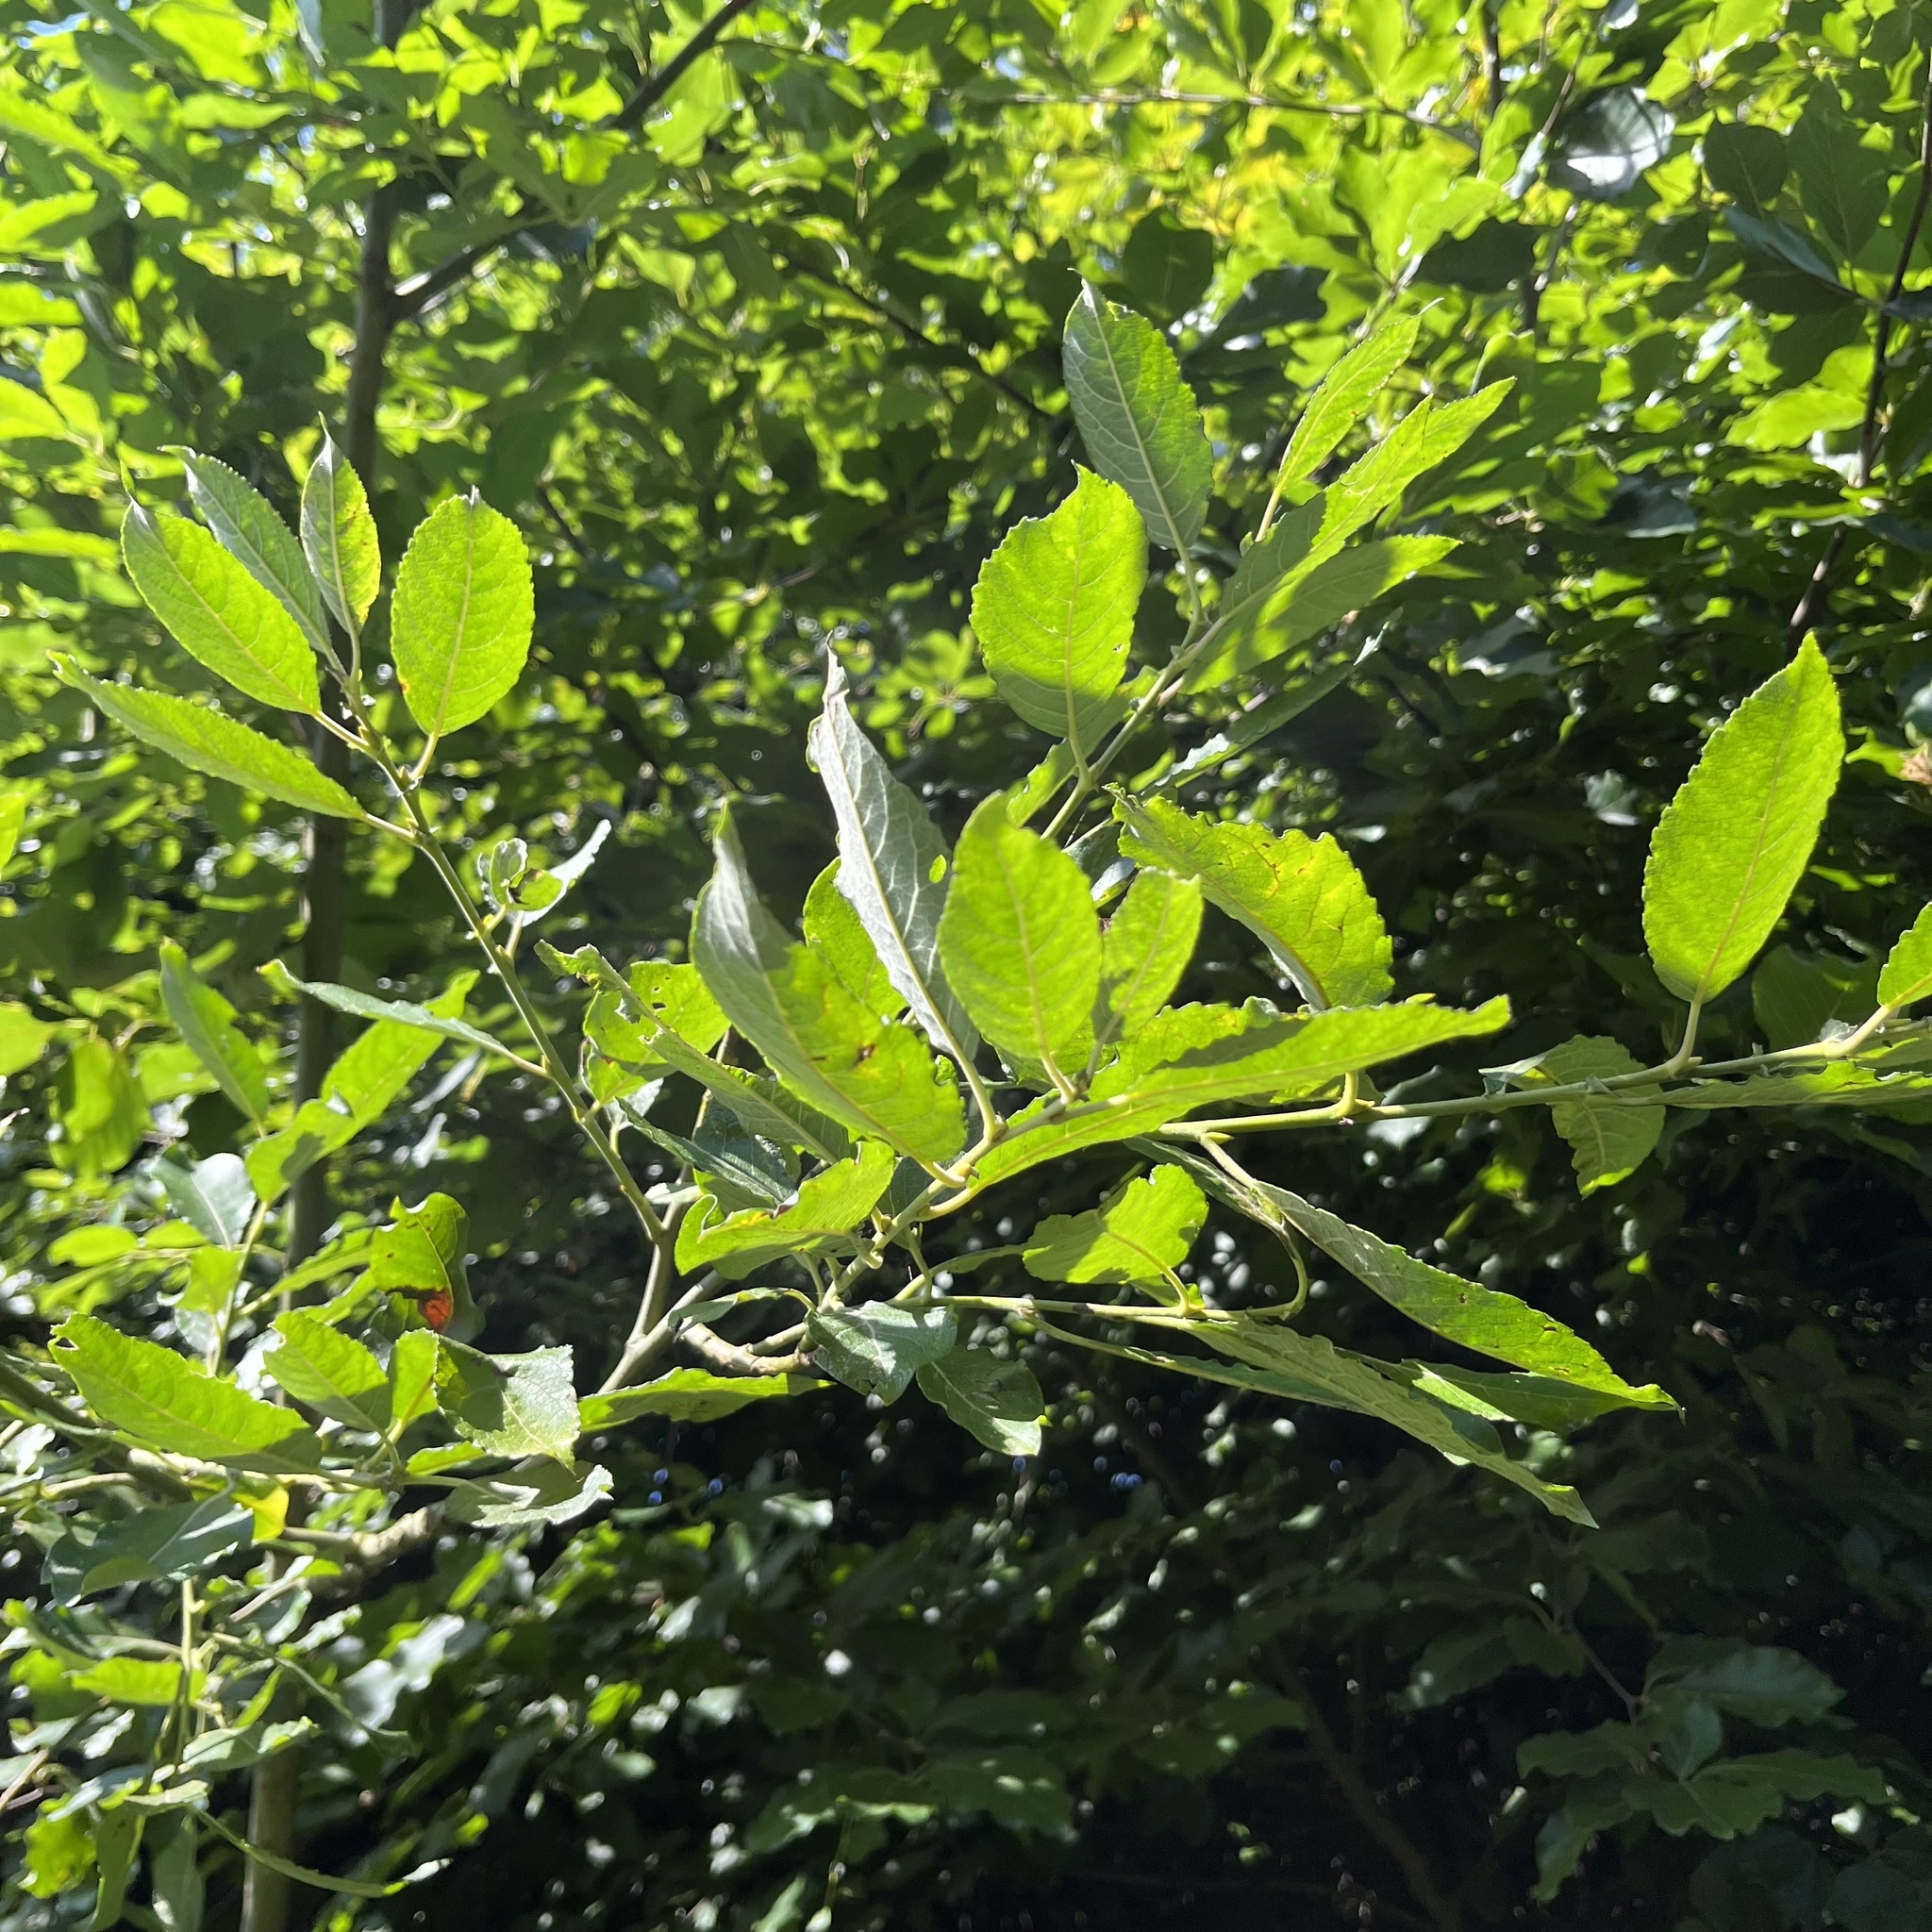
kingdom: Plantae
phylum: Tracheophyta
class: Magnoliopsida
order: Fagales
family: Fagaceae
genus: Fagus
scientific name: Fagus sylvatica
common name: Beech
